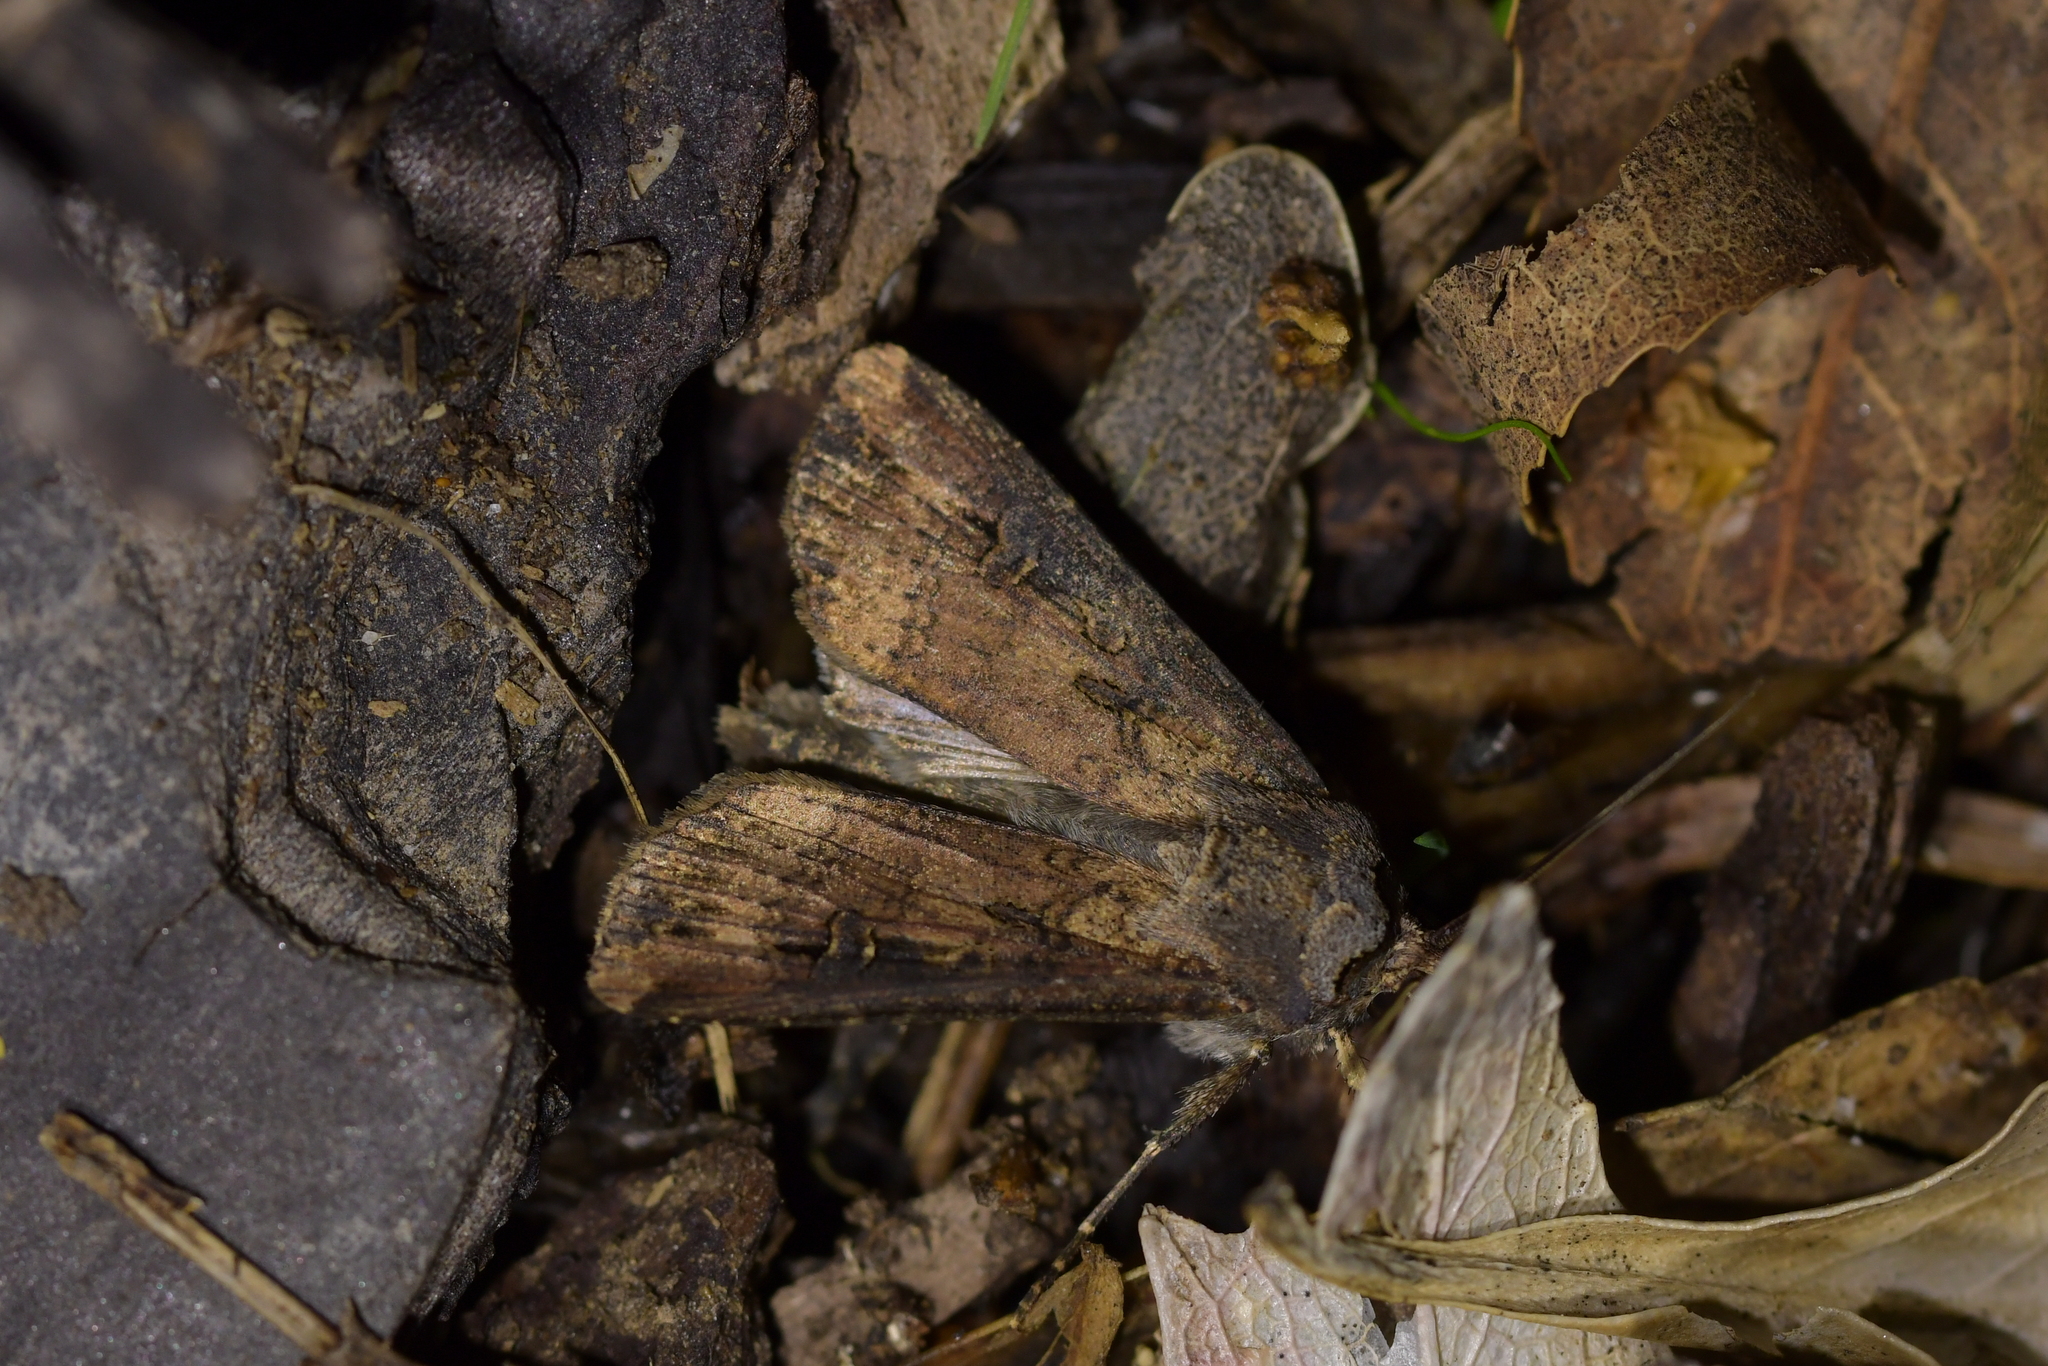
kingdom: Animalia
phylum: Arthropoda
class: Insecta
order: Lepidoptera
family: Noctuidae
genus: Agrotis
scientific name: Agrotis ipsilon
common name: Dark sword-grass
